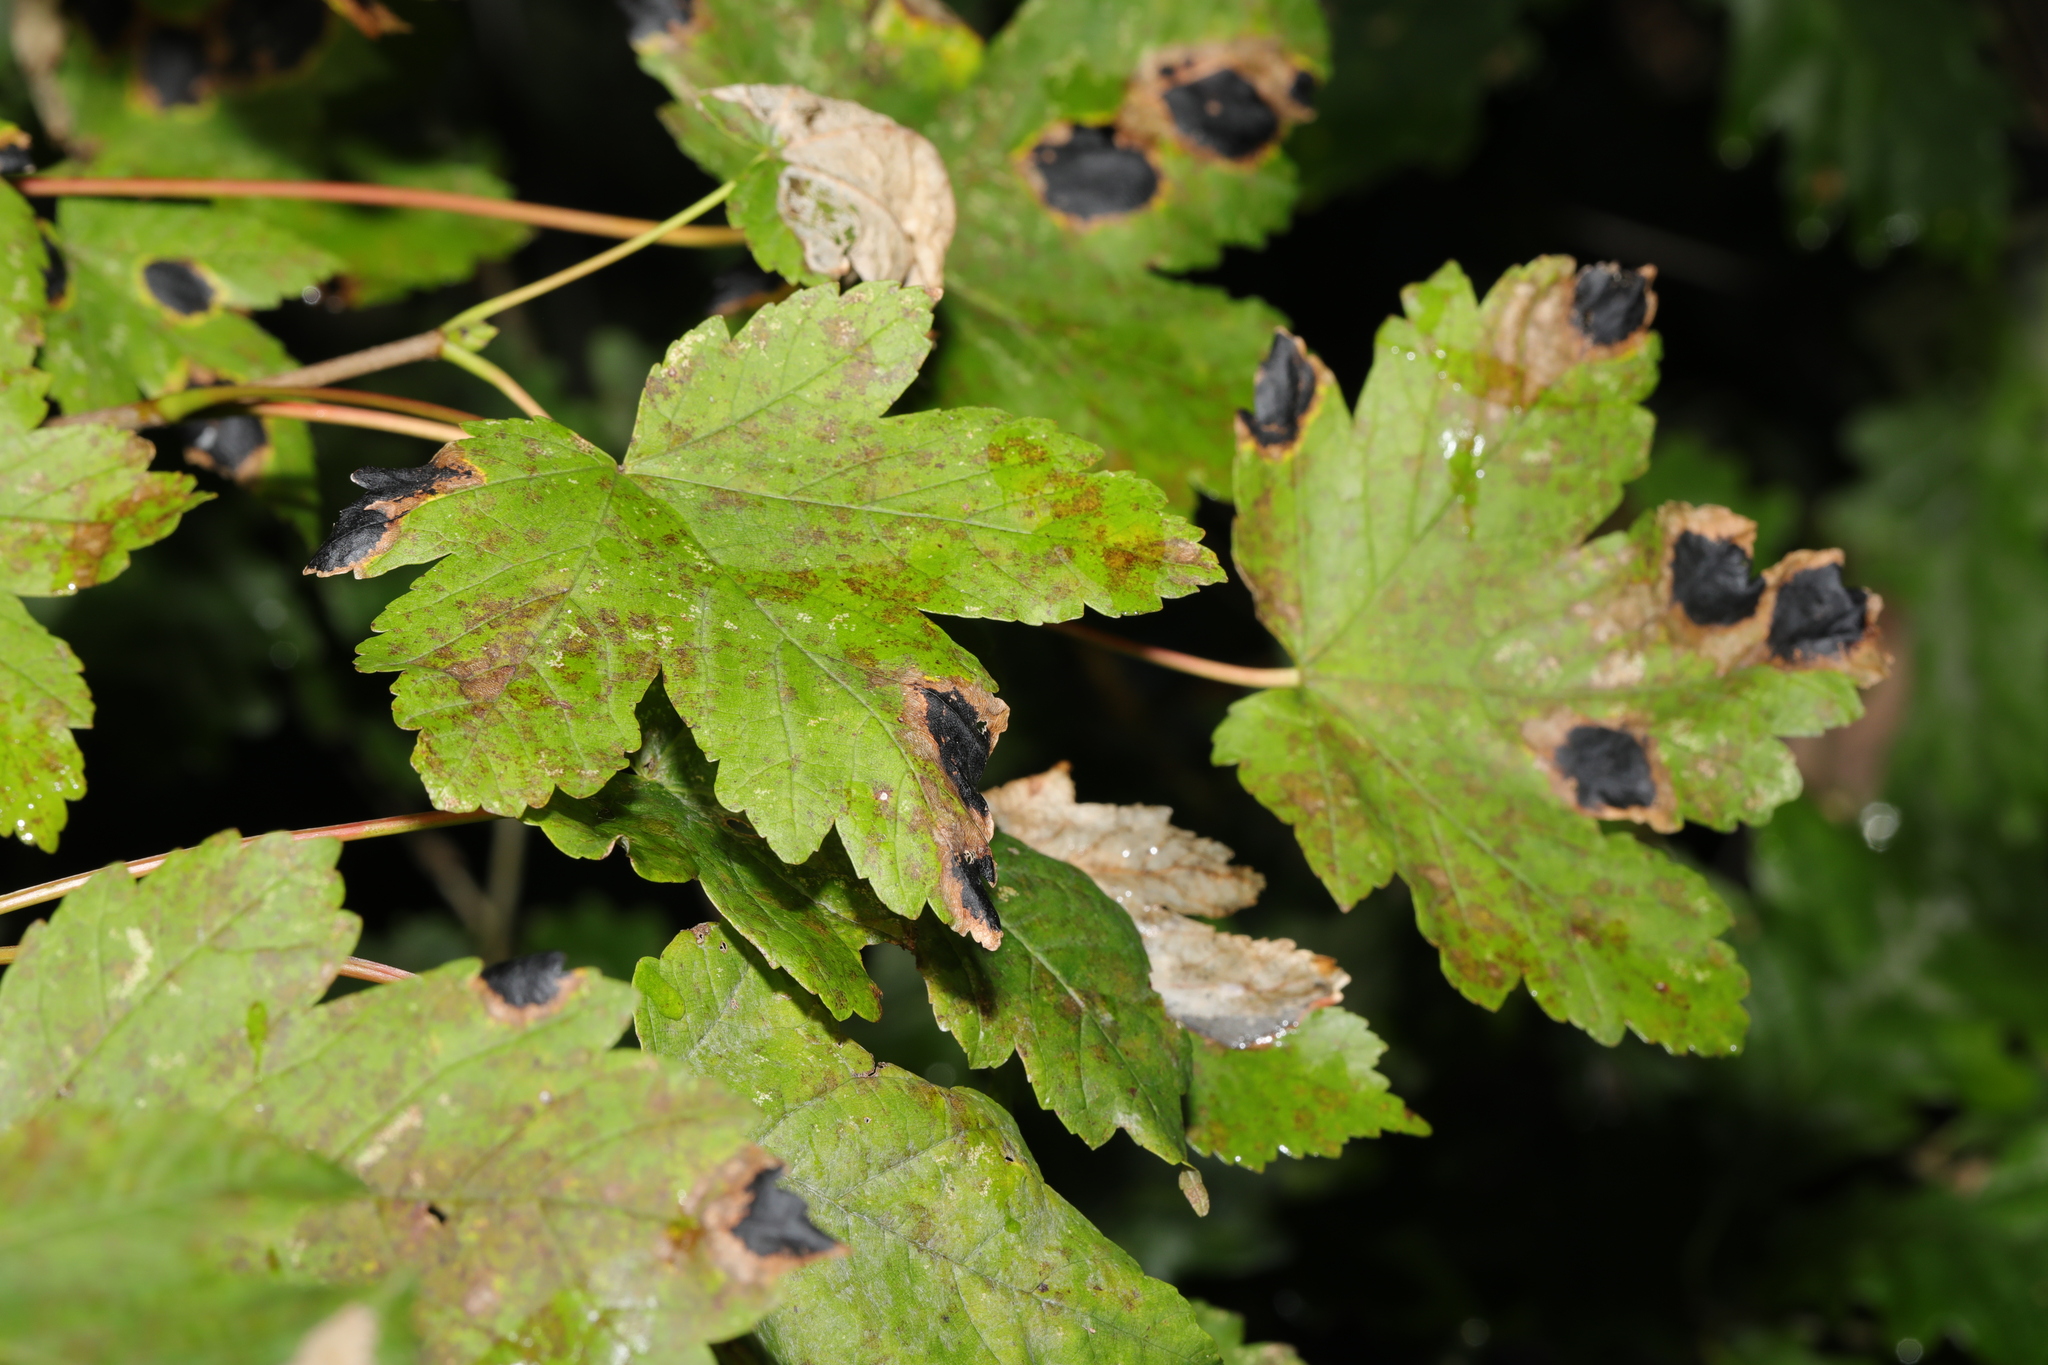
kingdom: Plantae
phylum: Tracheophyta
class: Magnoliopsida
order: Sapindales
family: Sapindaceae
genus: Acer
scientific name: Acer pseudoplatanus
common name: Sycamore
